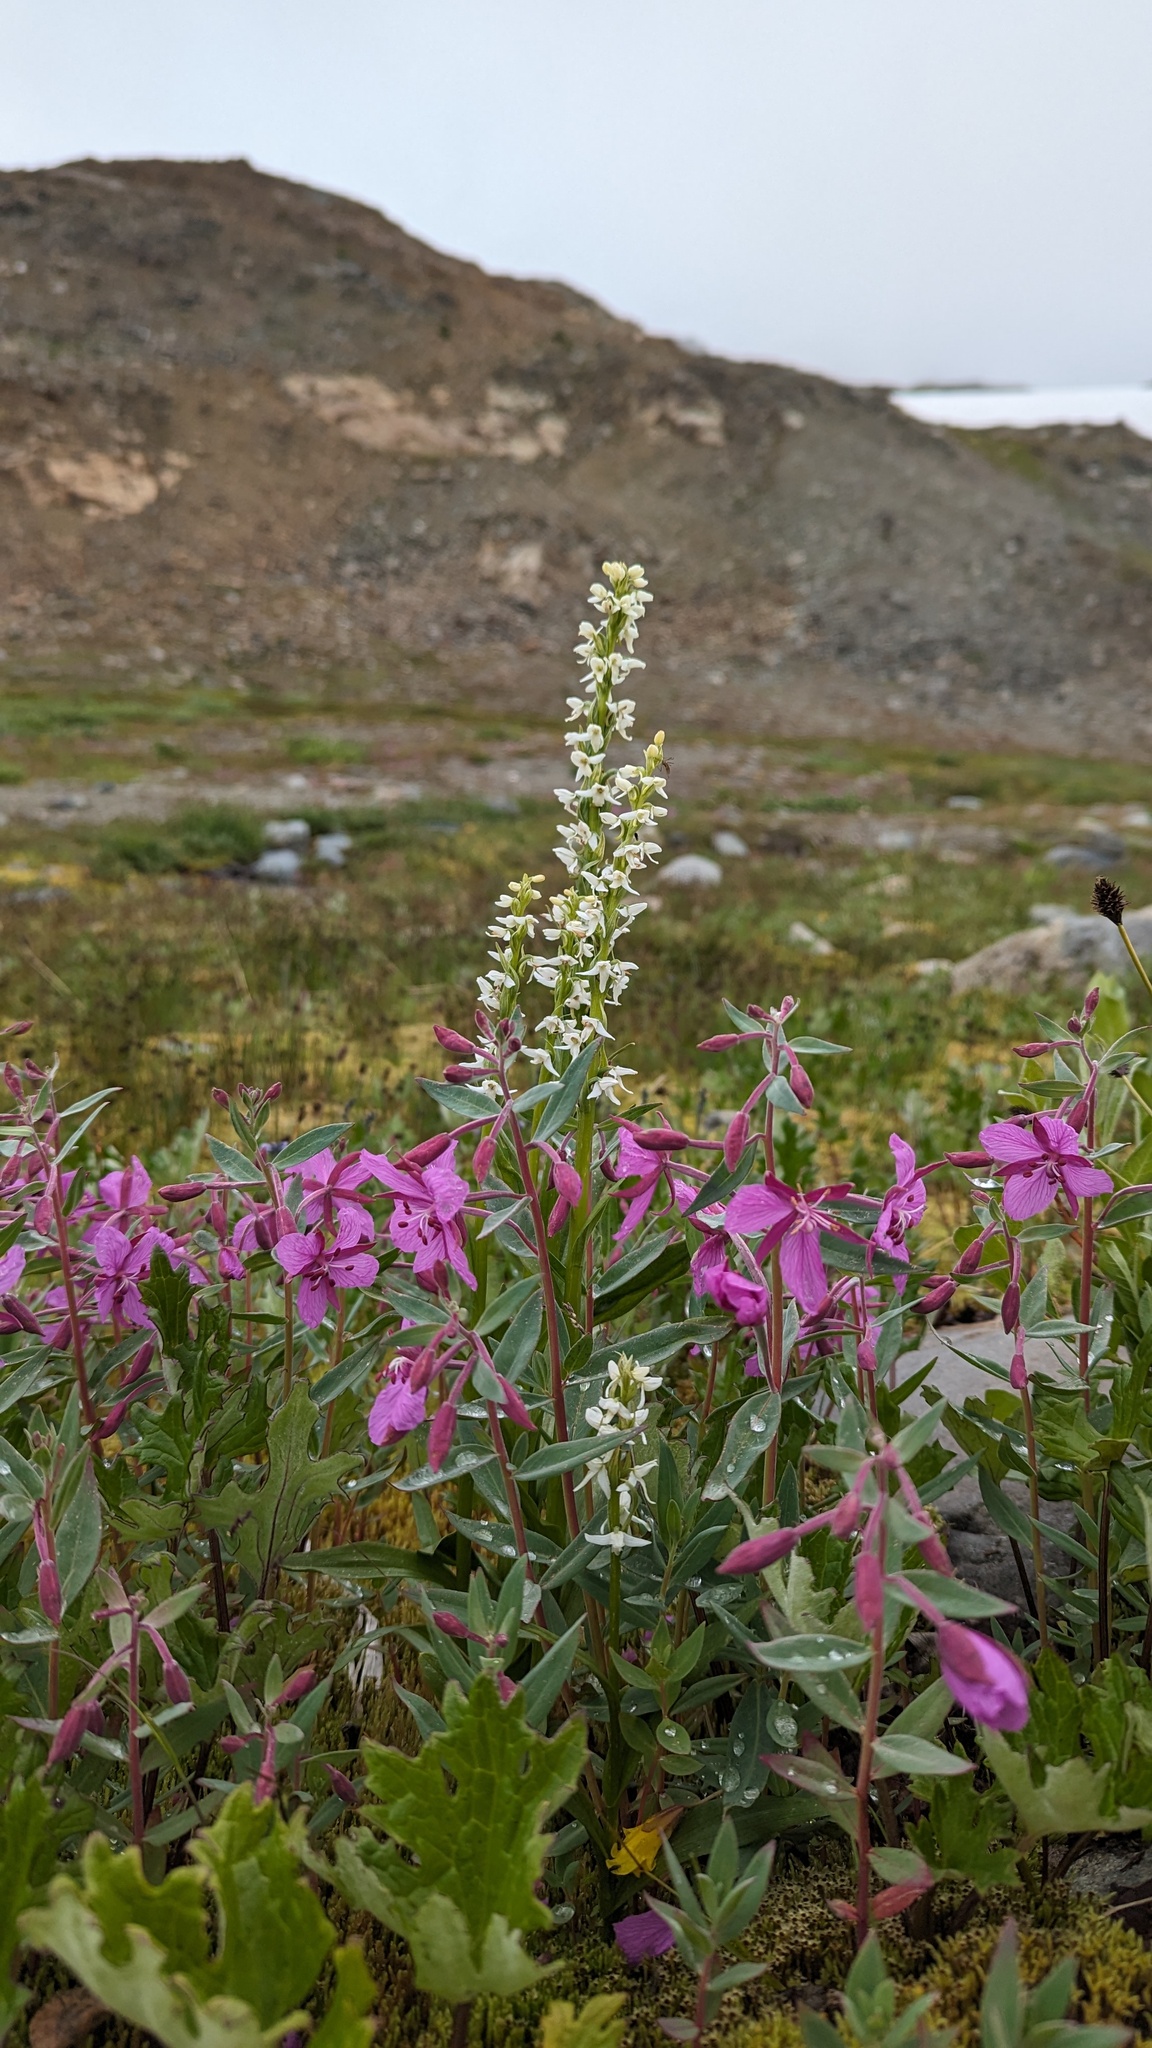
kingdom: Plantae
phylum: Tracheophyta
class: Magnoliopsida
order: Myrtales
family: Onagraceae
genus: Chamaenerion
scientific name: Chamaenerion latifolium
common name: Dwarf fireweed
